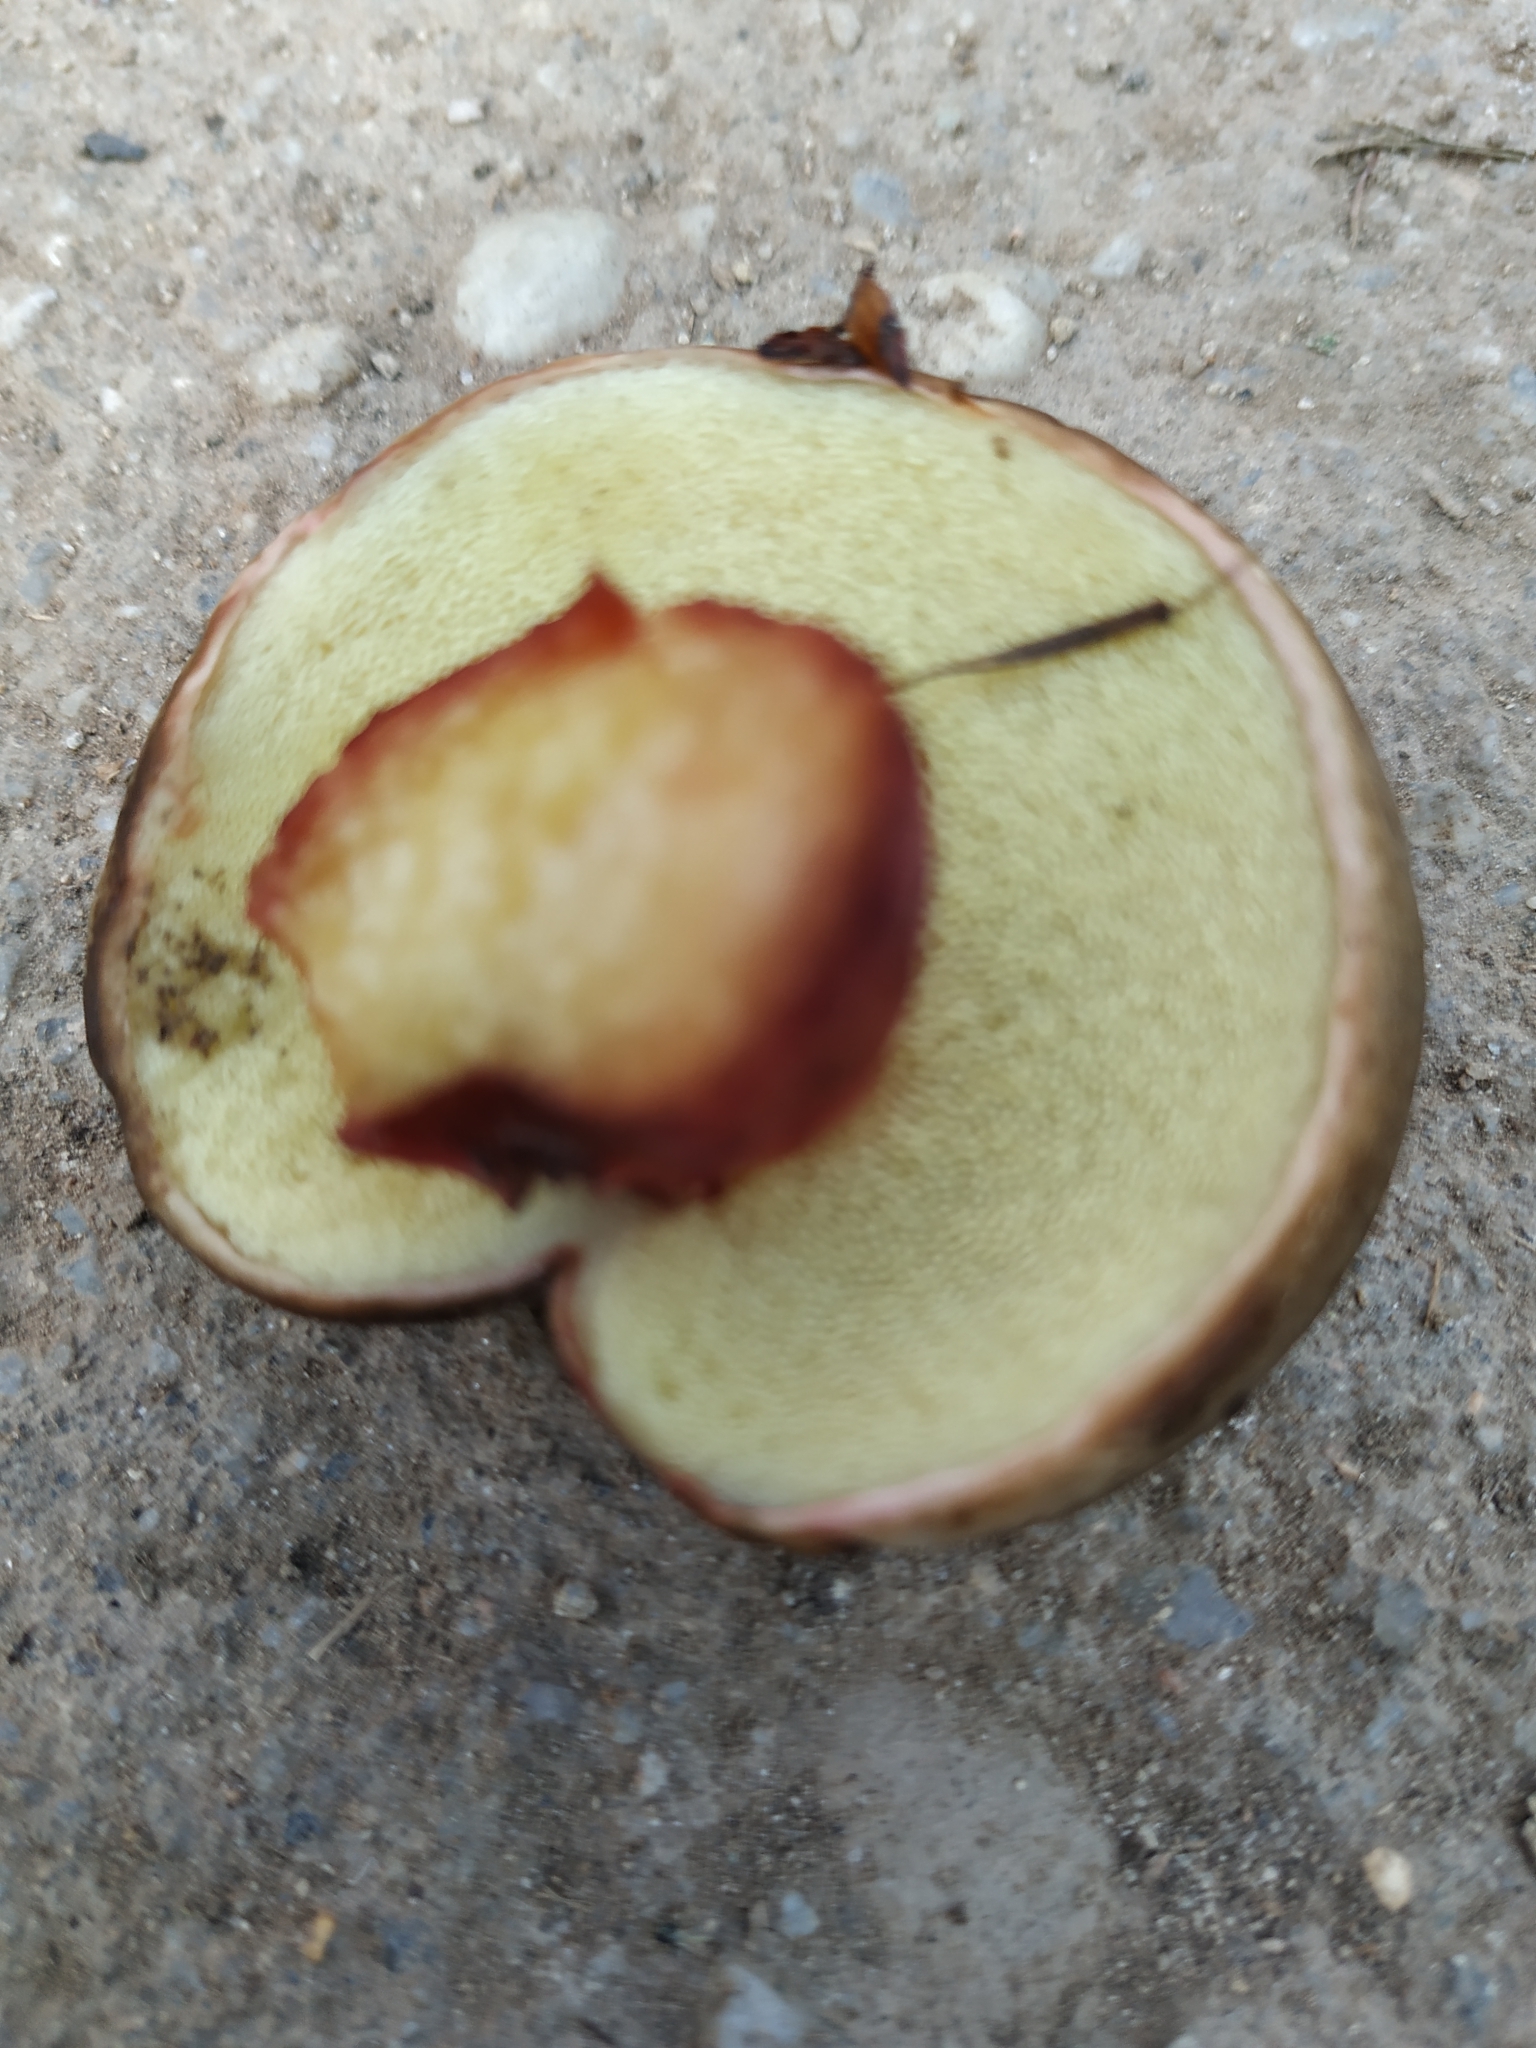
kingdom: Fungi
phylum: Basidiomycota
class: Agaricomycetes
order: Boletales
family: Boletaceae
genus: Xerocomellus
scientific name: Xerocomellus pruinatus
